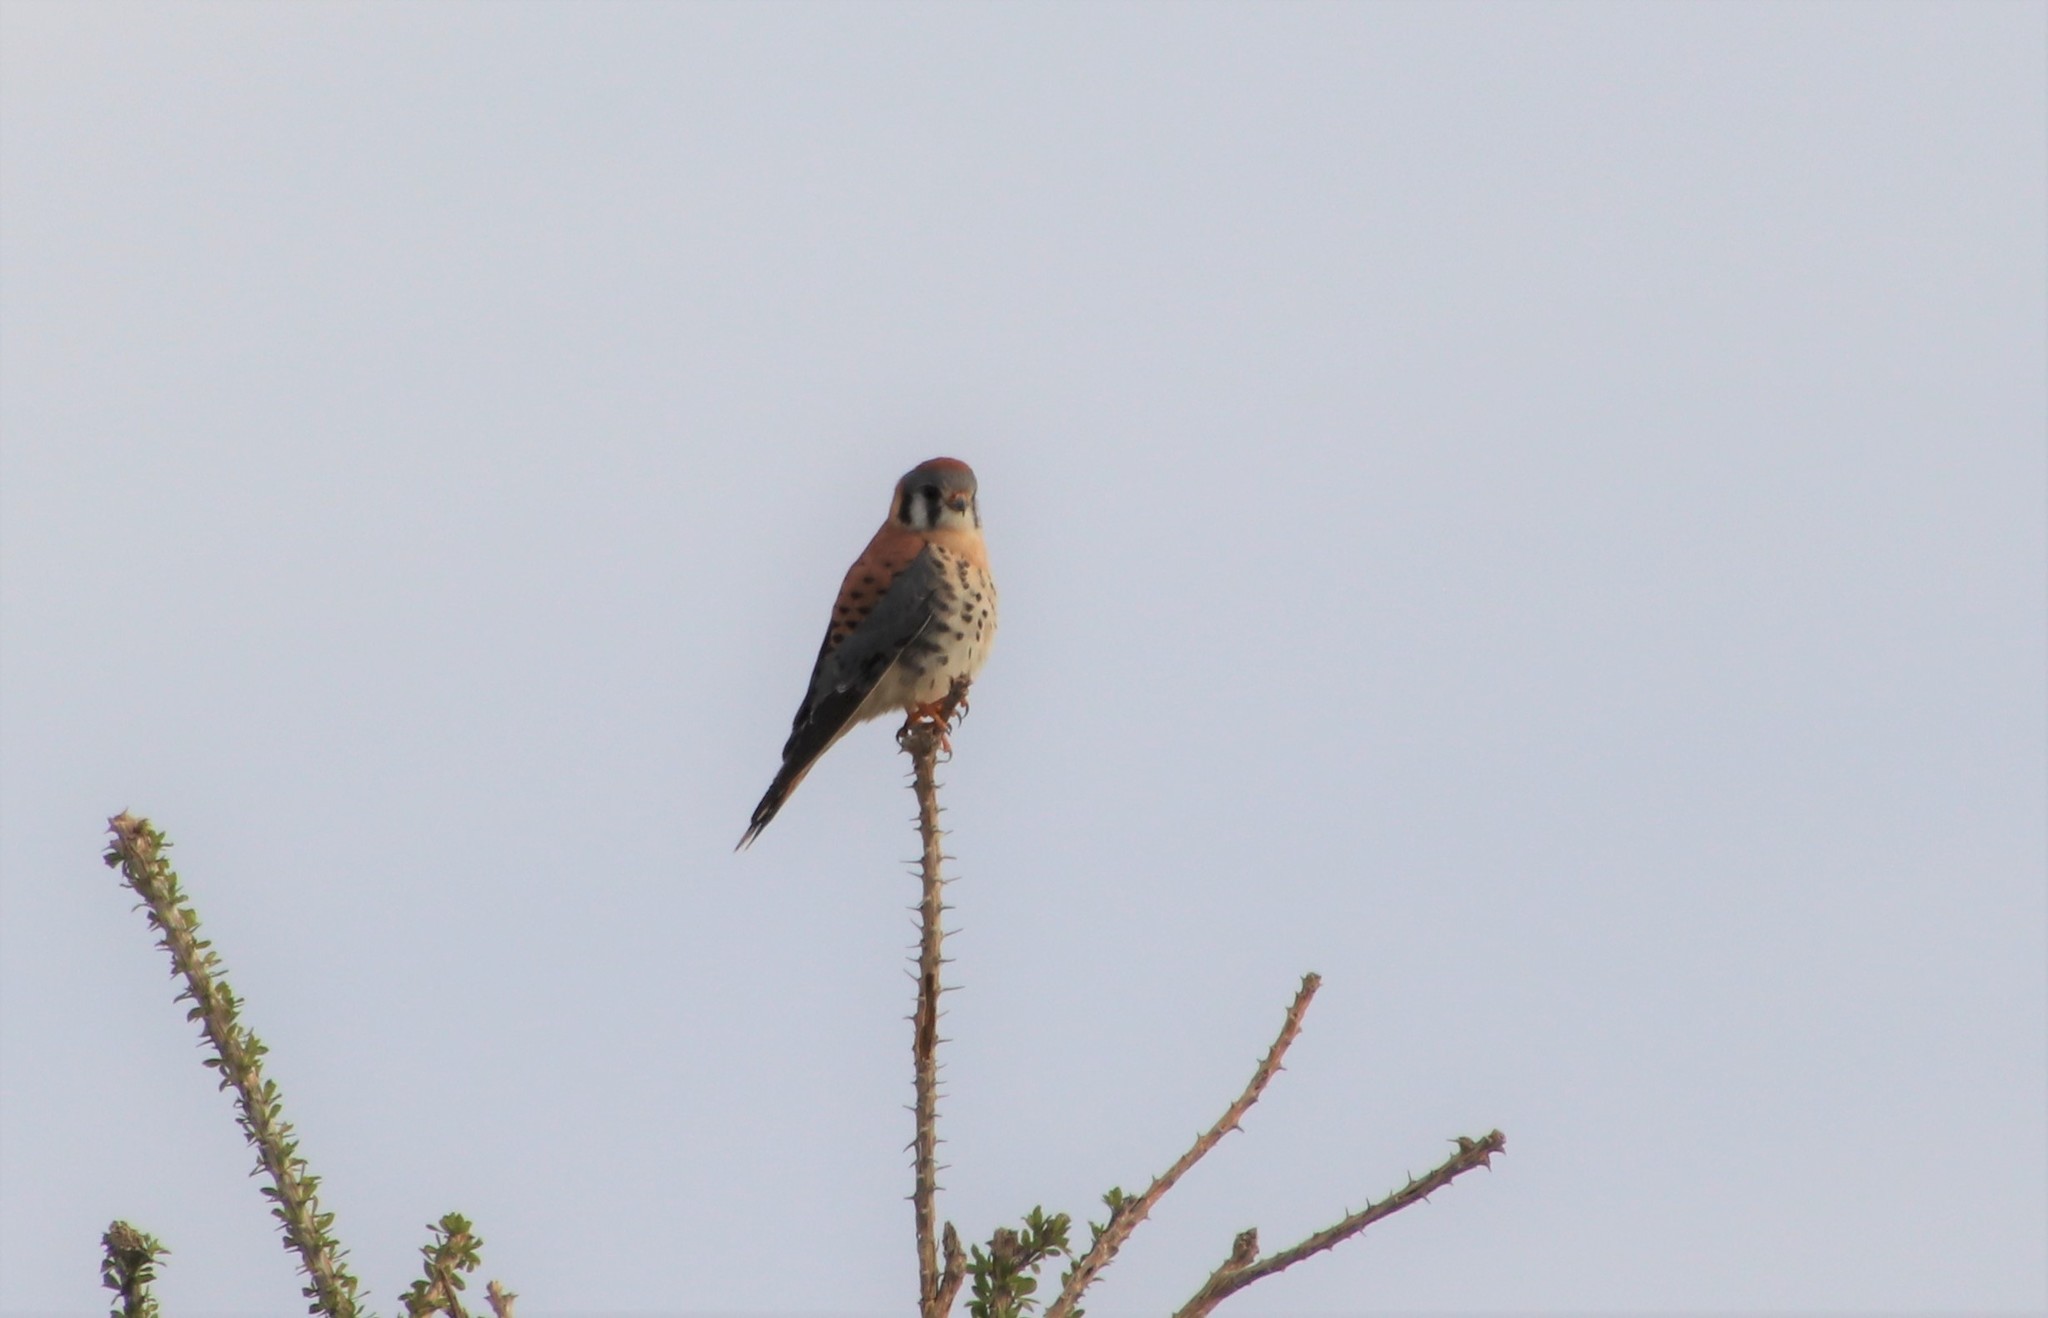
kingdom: Animalia
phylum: Chordata
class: Aves
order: Falconiformes
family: Falconidae
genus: Falco
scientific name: Falco sparverius
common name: American kestrel
